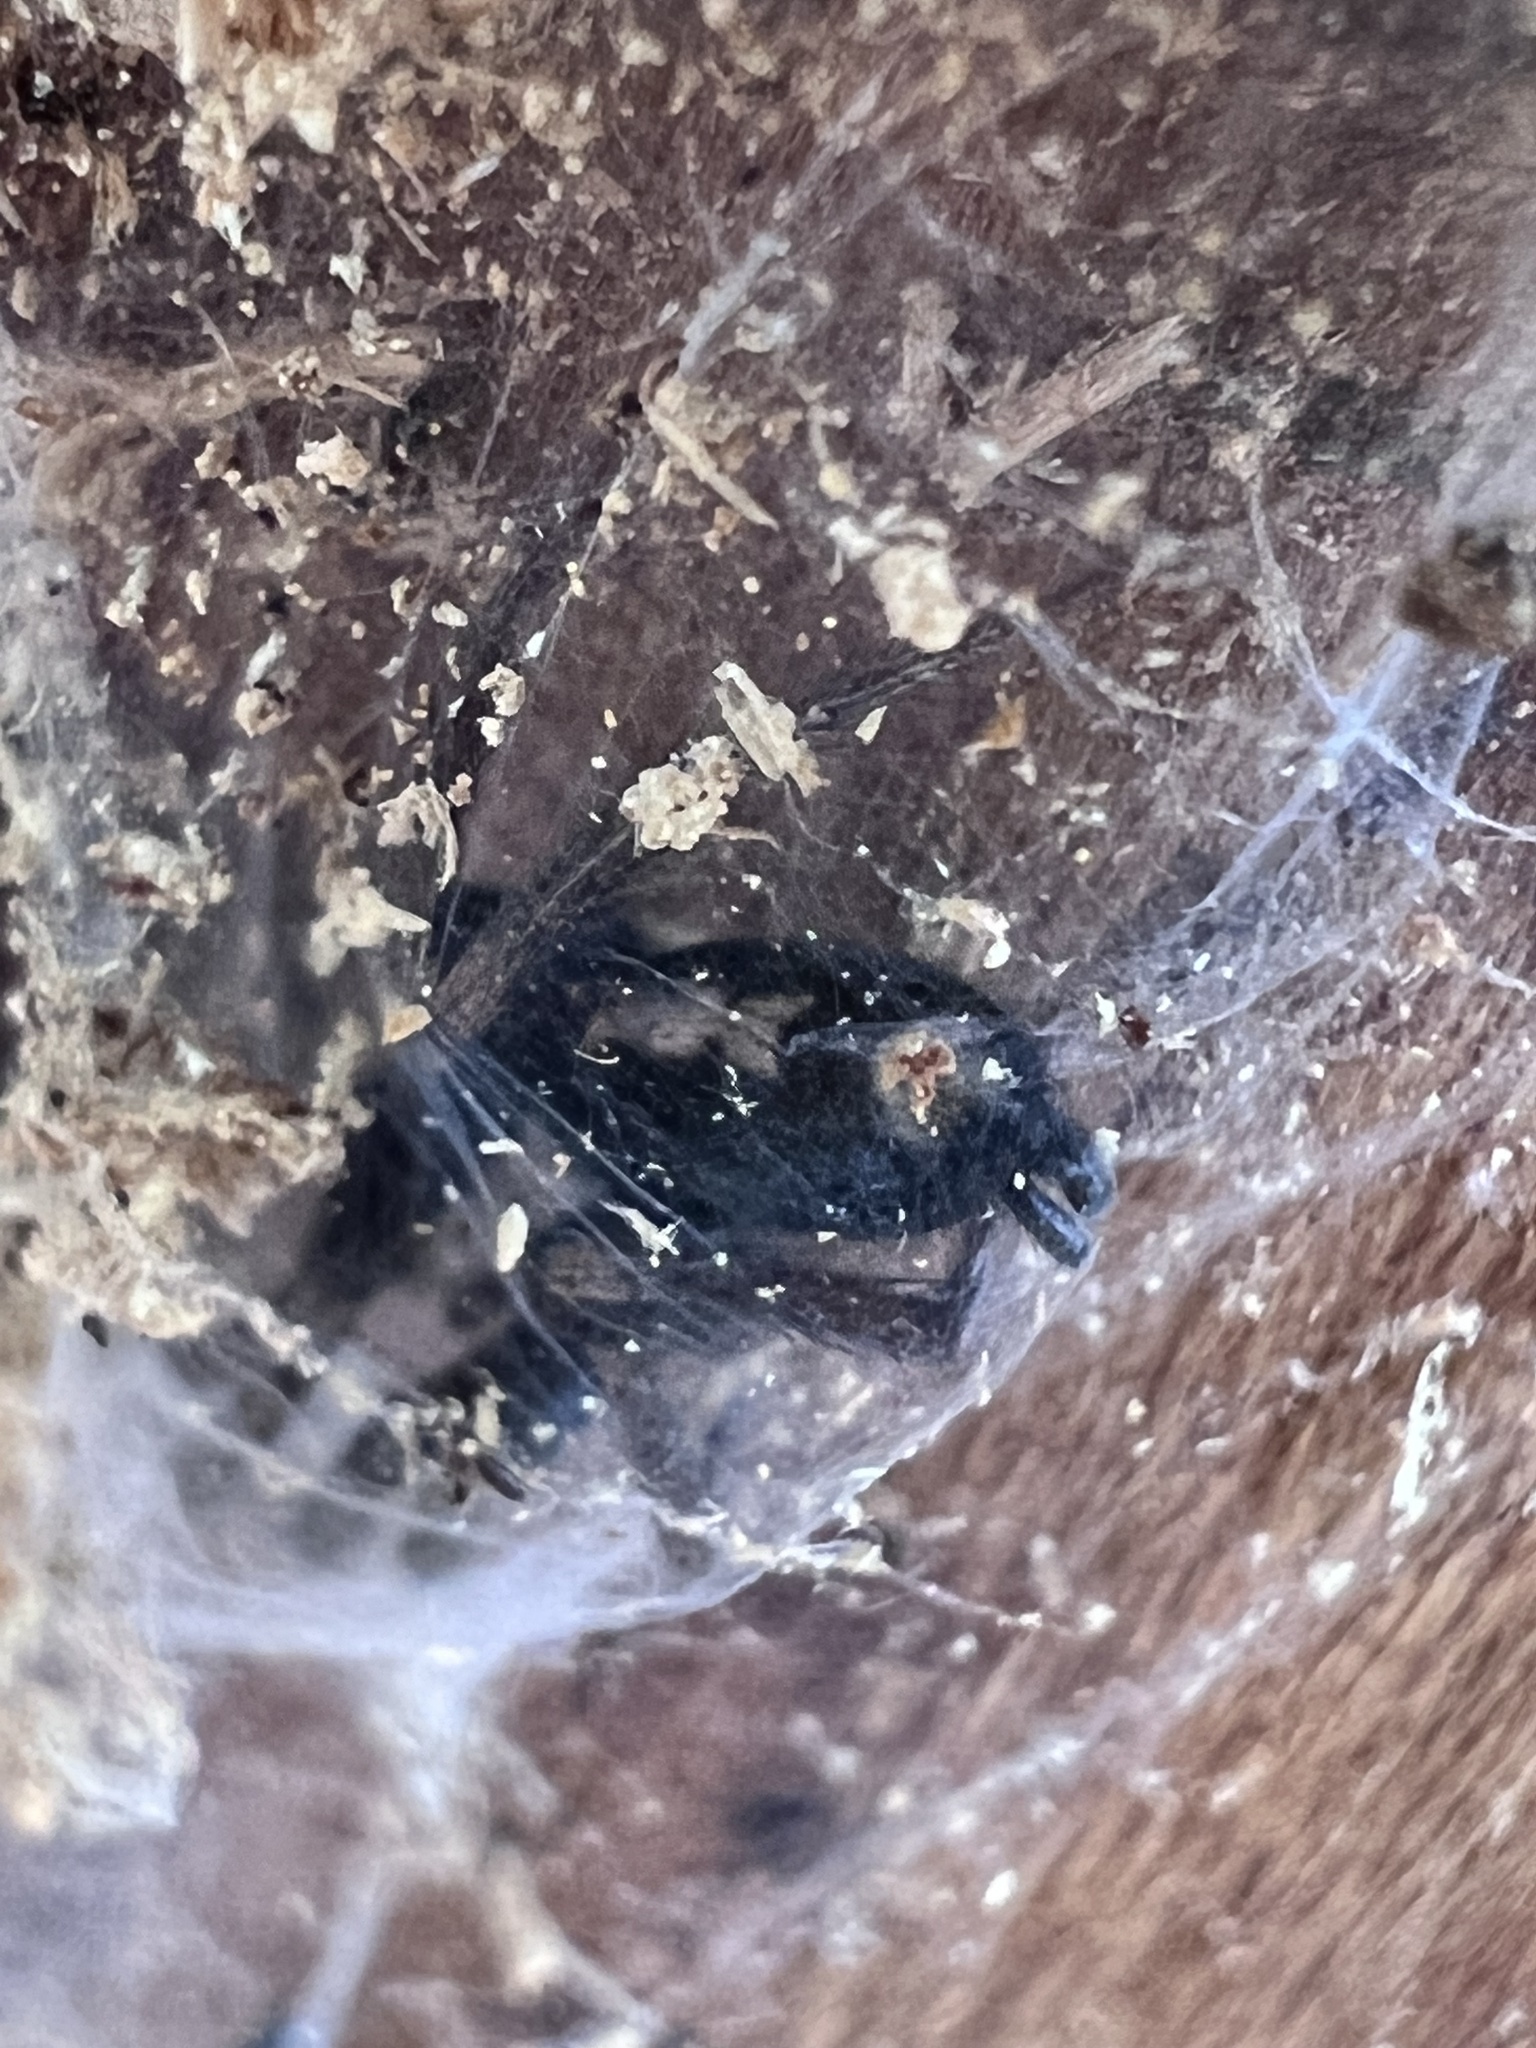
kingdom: Animalia
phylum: Arthropoda
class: Arachnida
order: Araneae
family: Gnaphosidae
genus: Herpyllus
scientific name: Herpyllus ecclesiasticus
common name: Eastern parson spider
